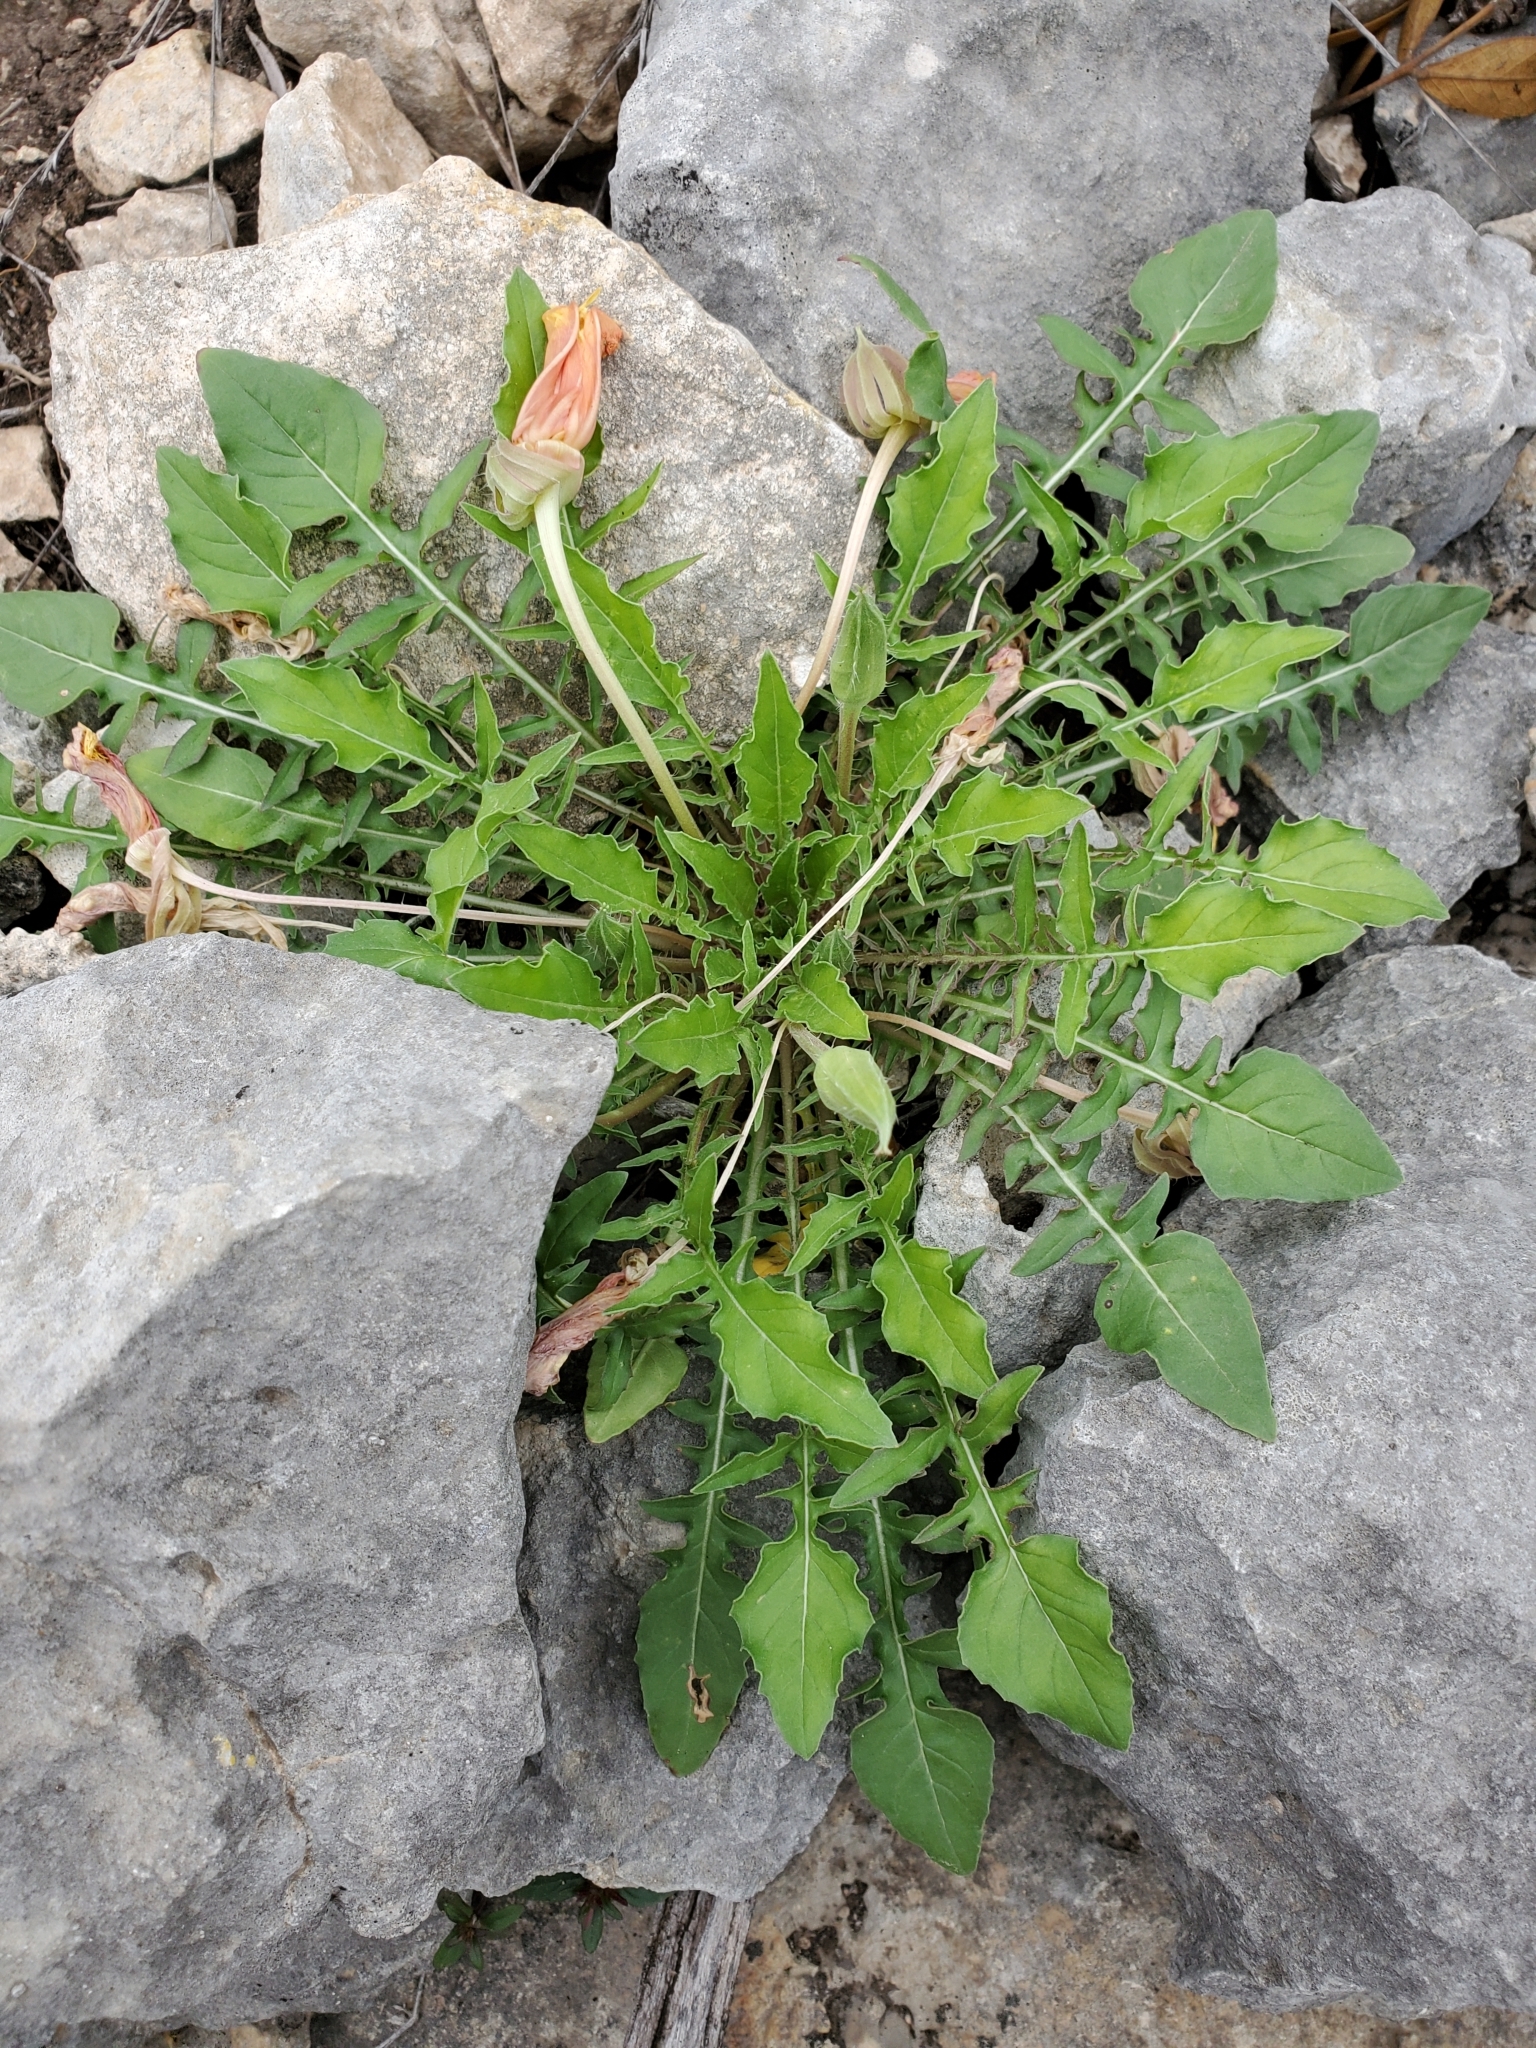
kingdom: Plantae
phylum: Tracheophyta
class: Magnoliopsida
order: Myrtales
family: Onagraceae
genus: Oenothera
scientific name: Oenothera triloba
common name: Sessile evening-primrose
